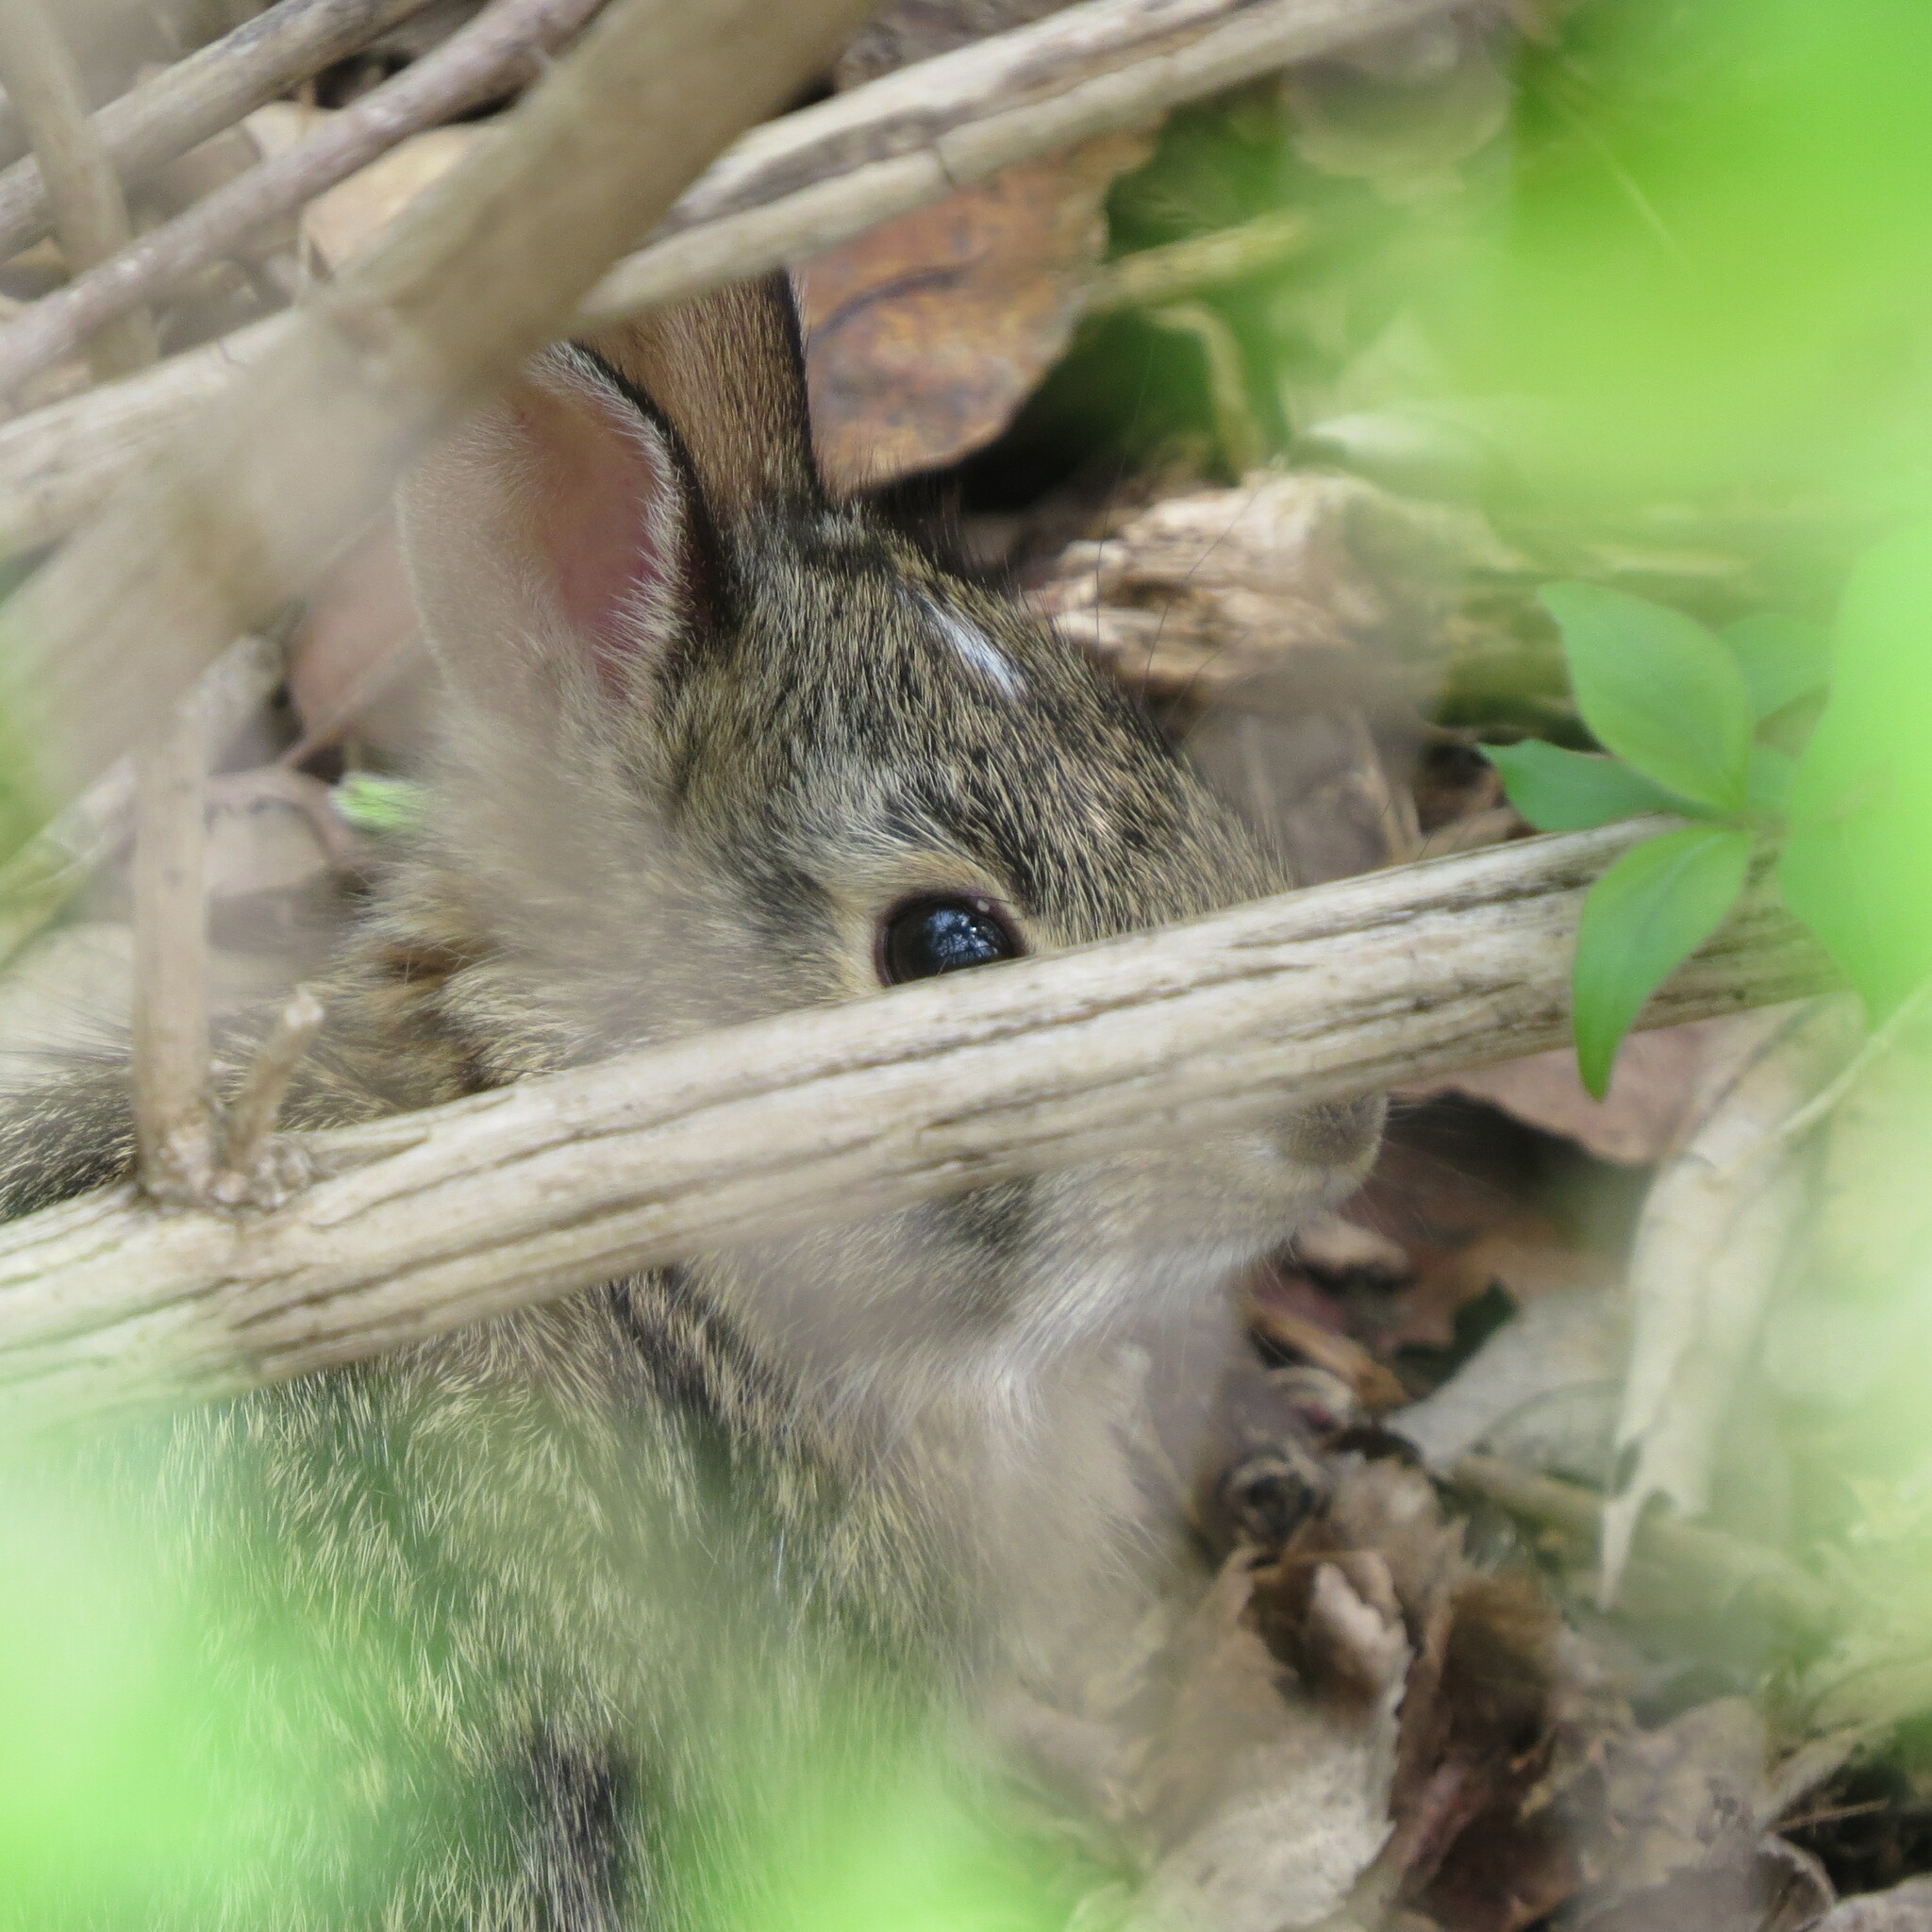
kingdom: Animalia
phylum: Chordata
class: Mammalia
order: Lagomorpha
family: Leporidae
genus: Sylvilagus
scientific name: Sylvilagus floridanus
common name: Eastern cottontail
